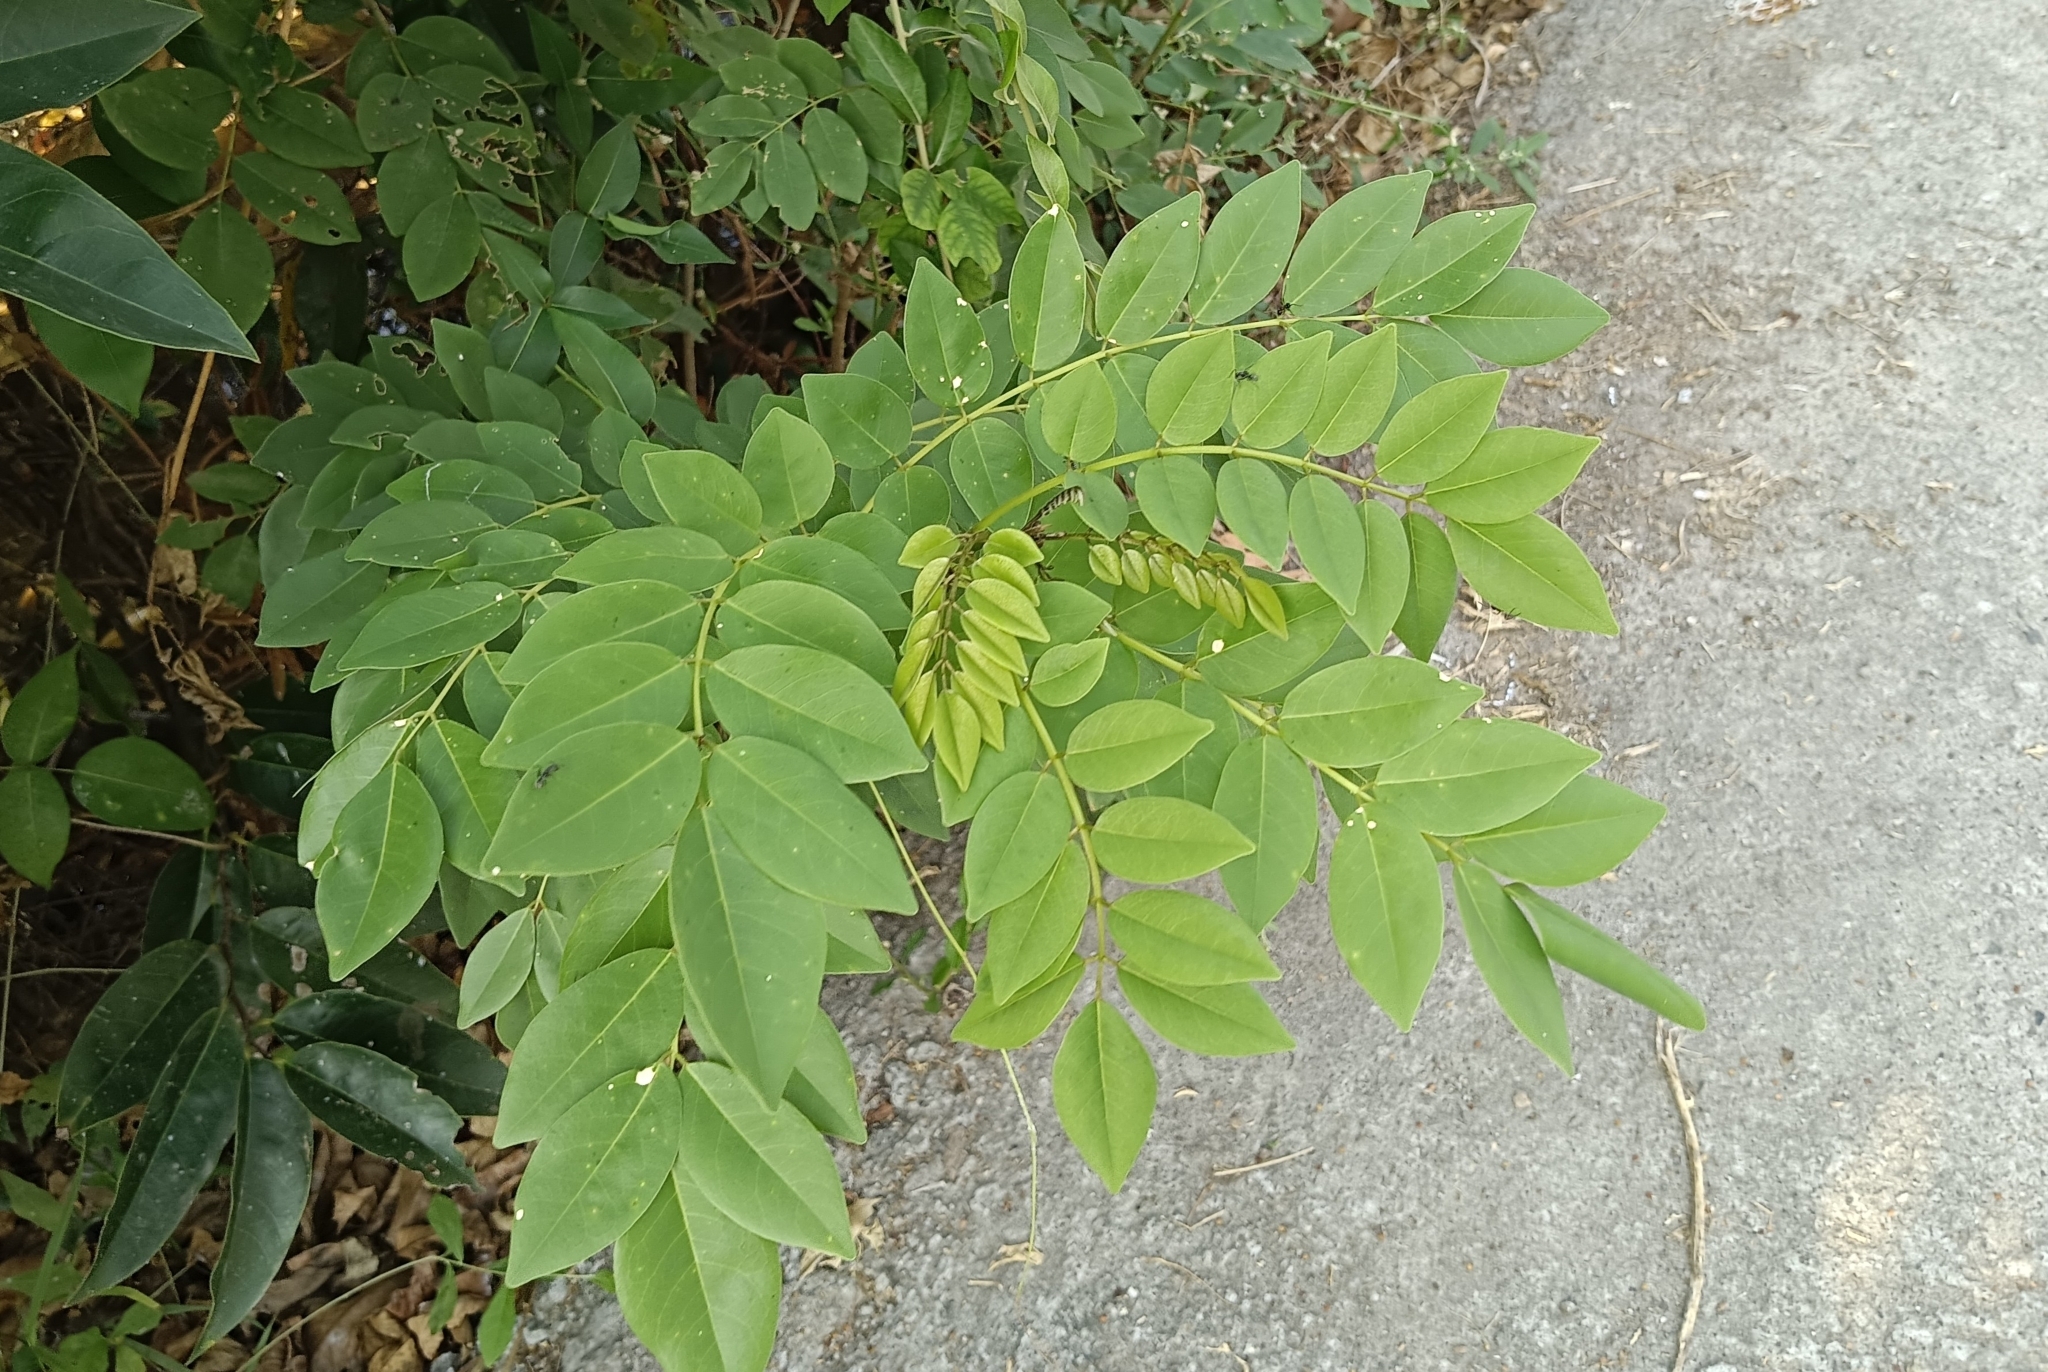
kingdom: Plantae
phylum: Tracheophyta
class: Magnoliopsida
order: Fabales
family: Fabaceae
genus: Gliricidia
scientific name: Gliricidia sepium
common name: Quickstick
